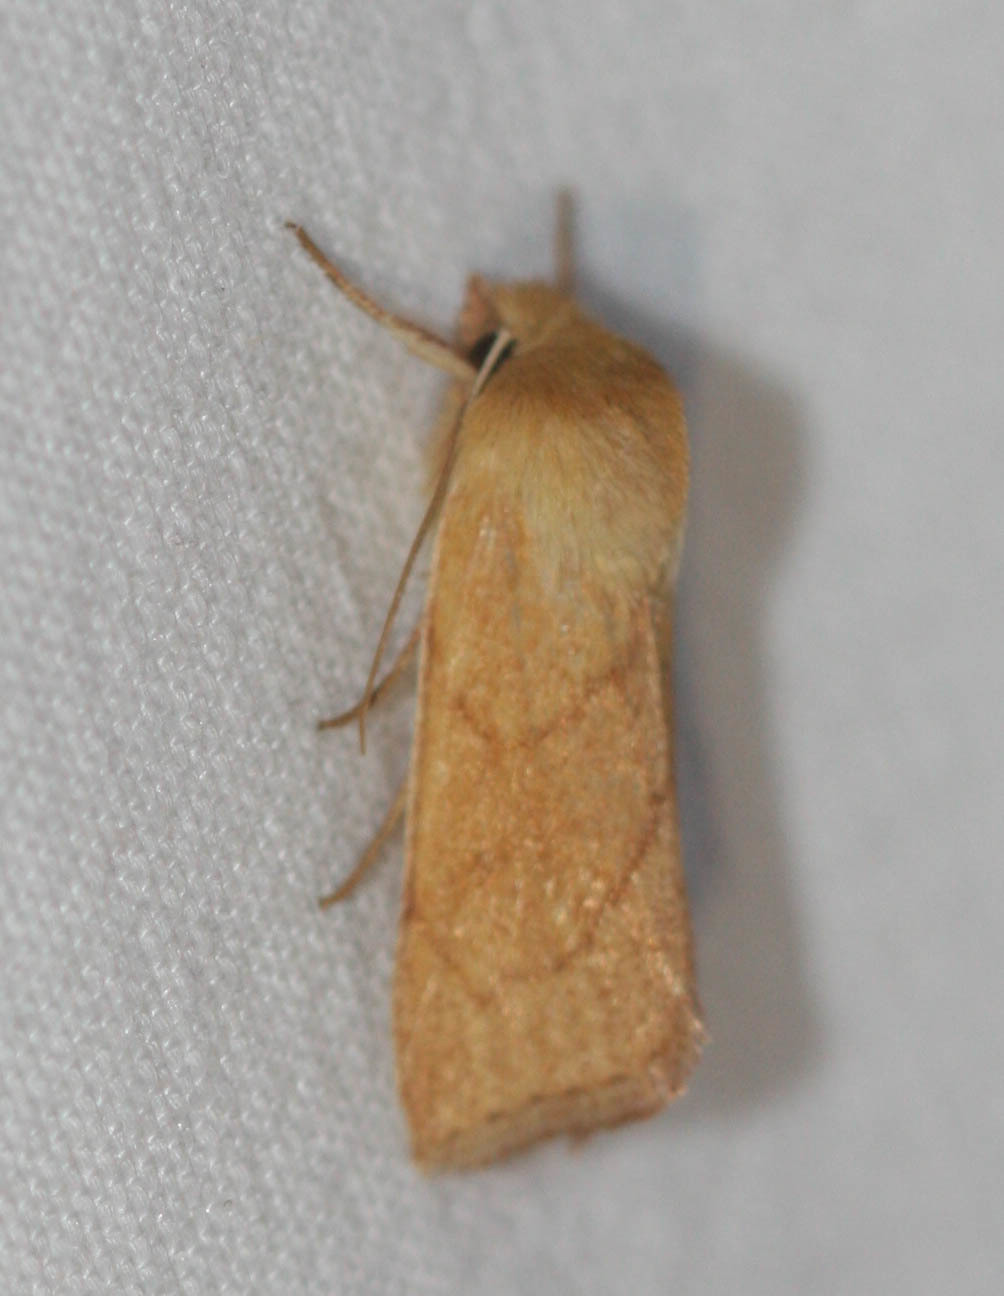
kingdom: Animalia
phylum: Arthropoda
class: Insecta
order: Lepidoptera
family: Noctuidae
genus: Zosteropoda
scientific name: Zosteropoda hirtipes
